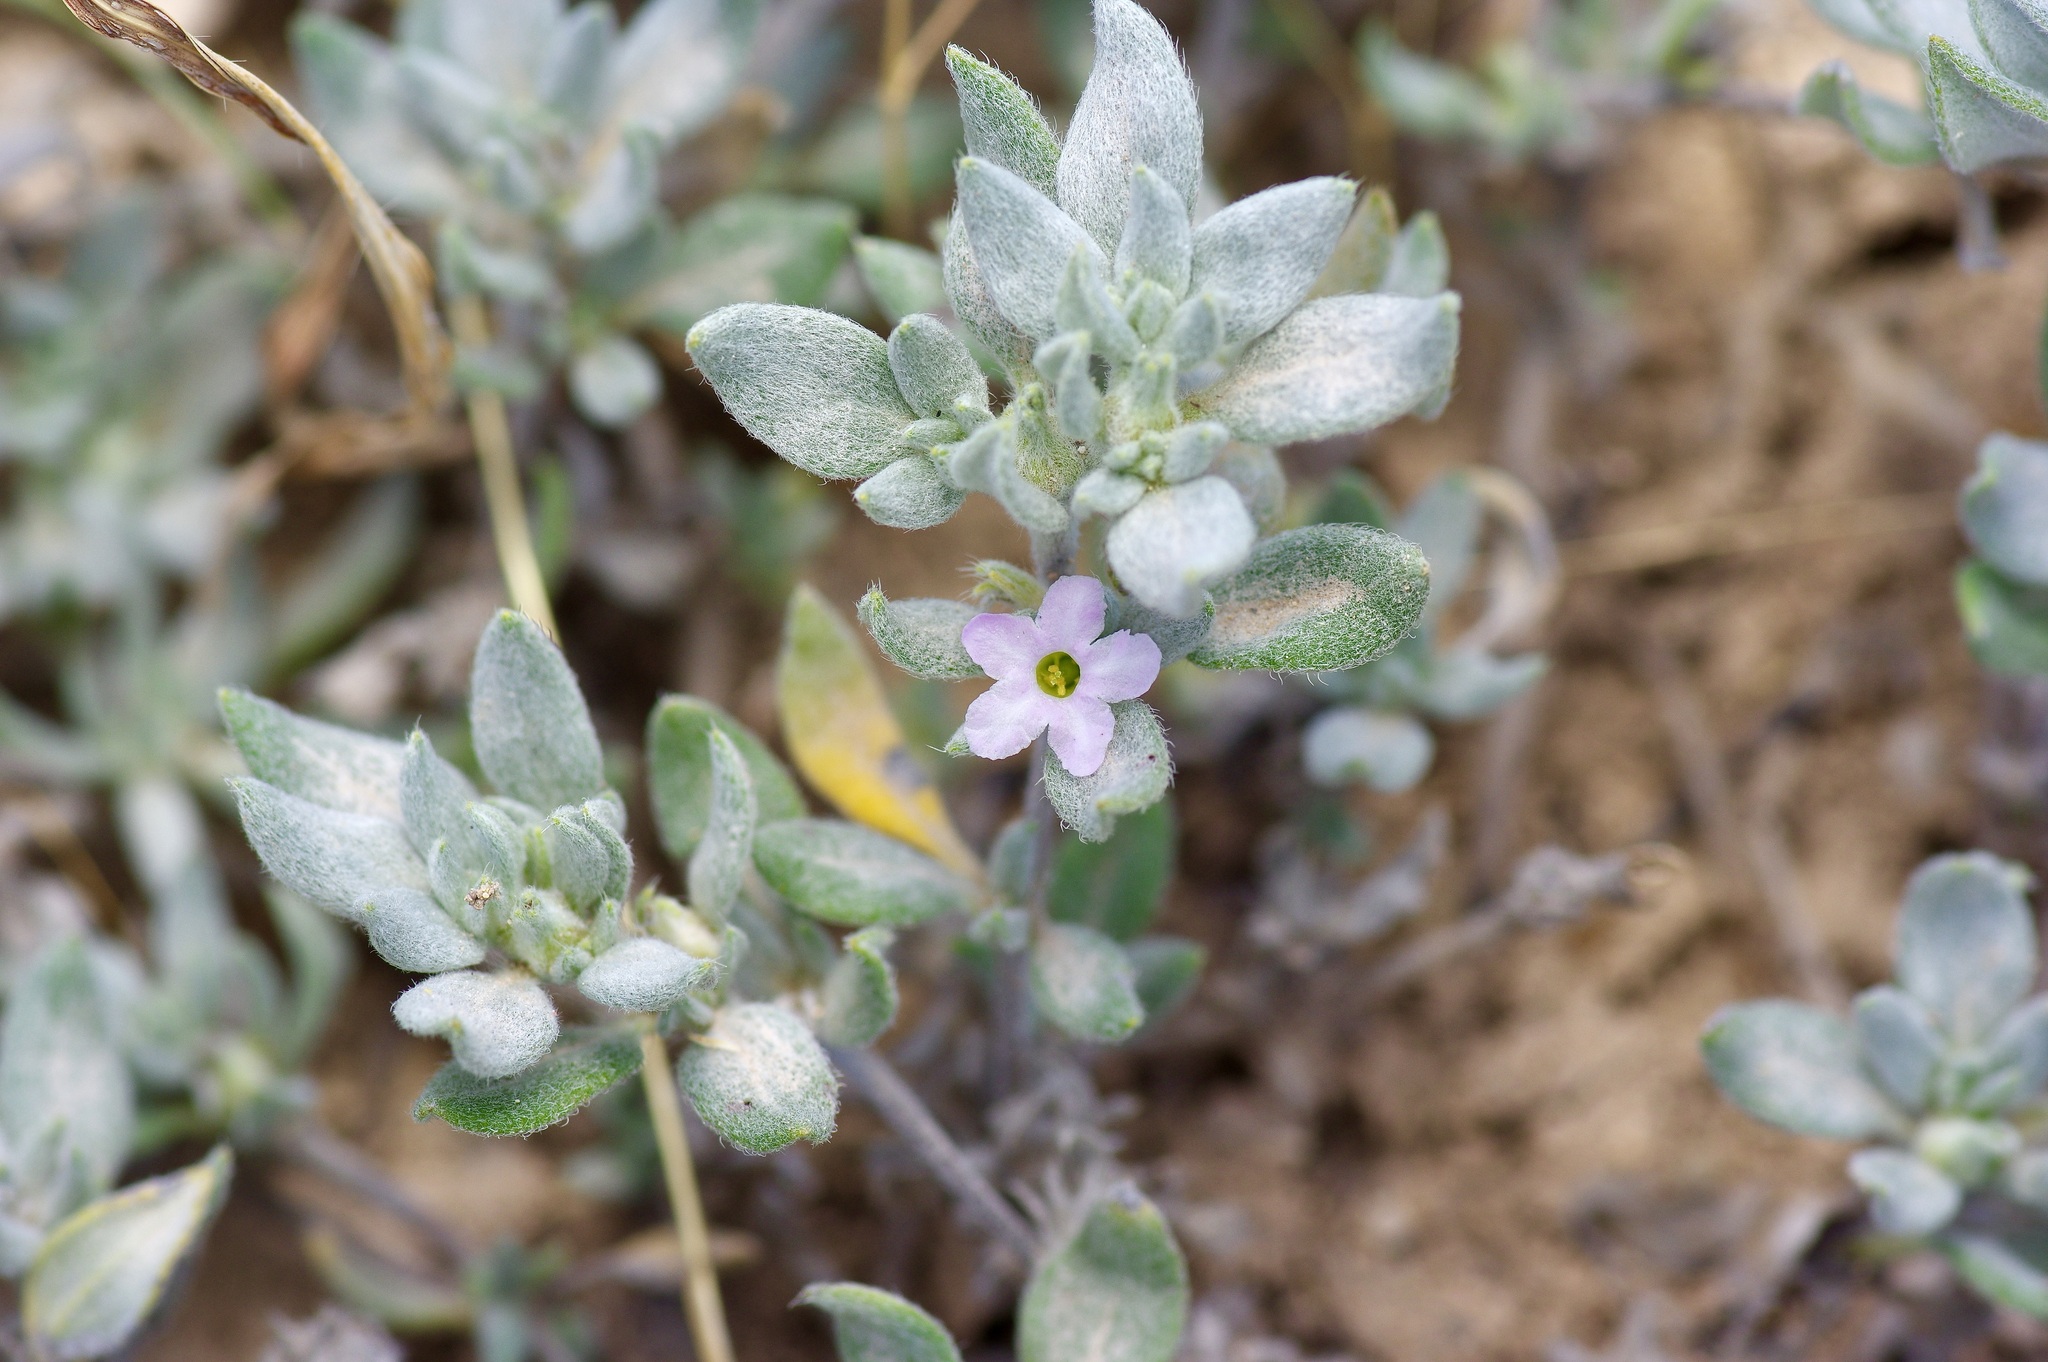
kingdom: Plantae
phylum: Tracheophyta
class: Magnoliopsida
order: Boraginales
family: Ehretiaceae
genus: Tiquilia
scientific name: Tiquilia canescens
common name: Hairy tiquilia
